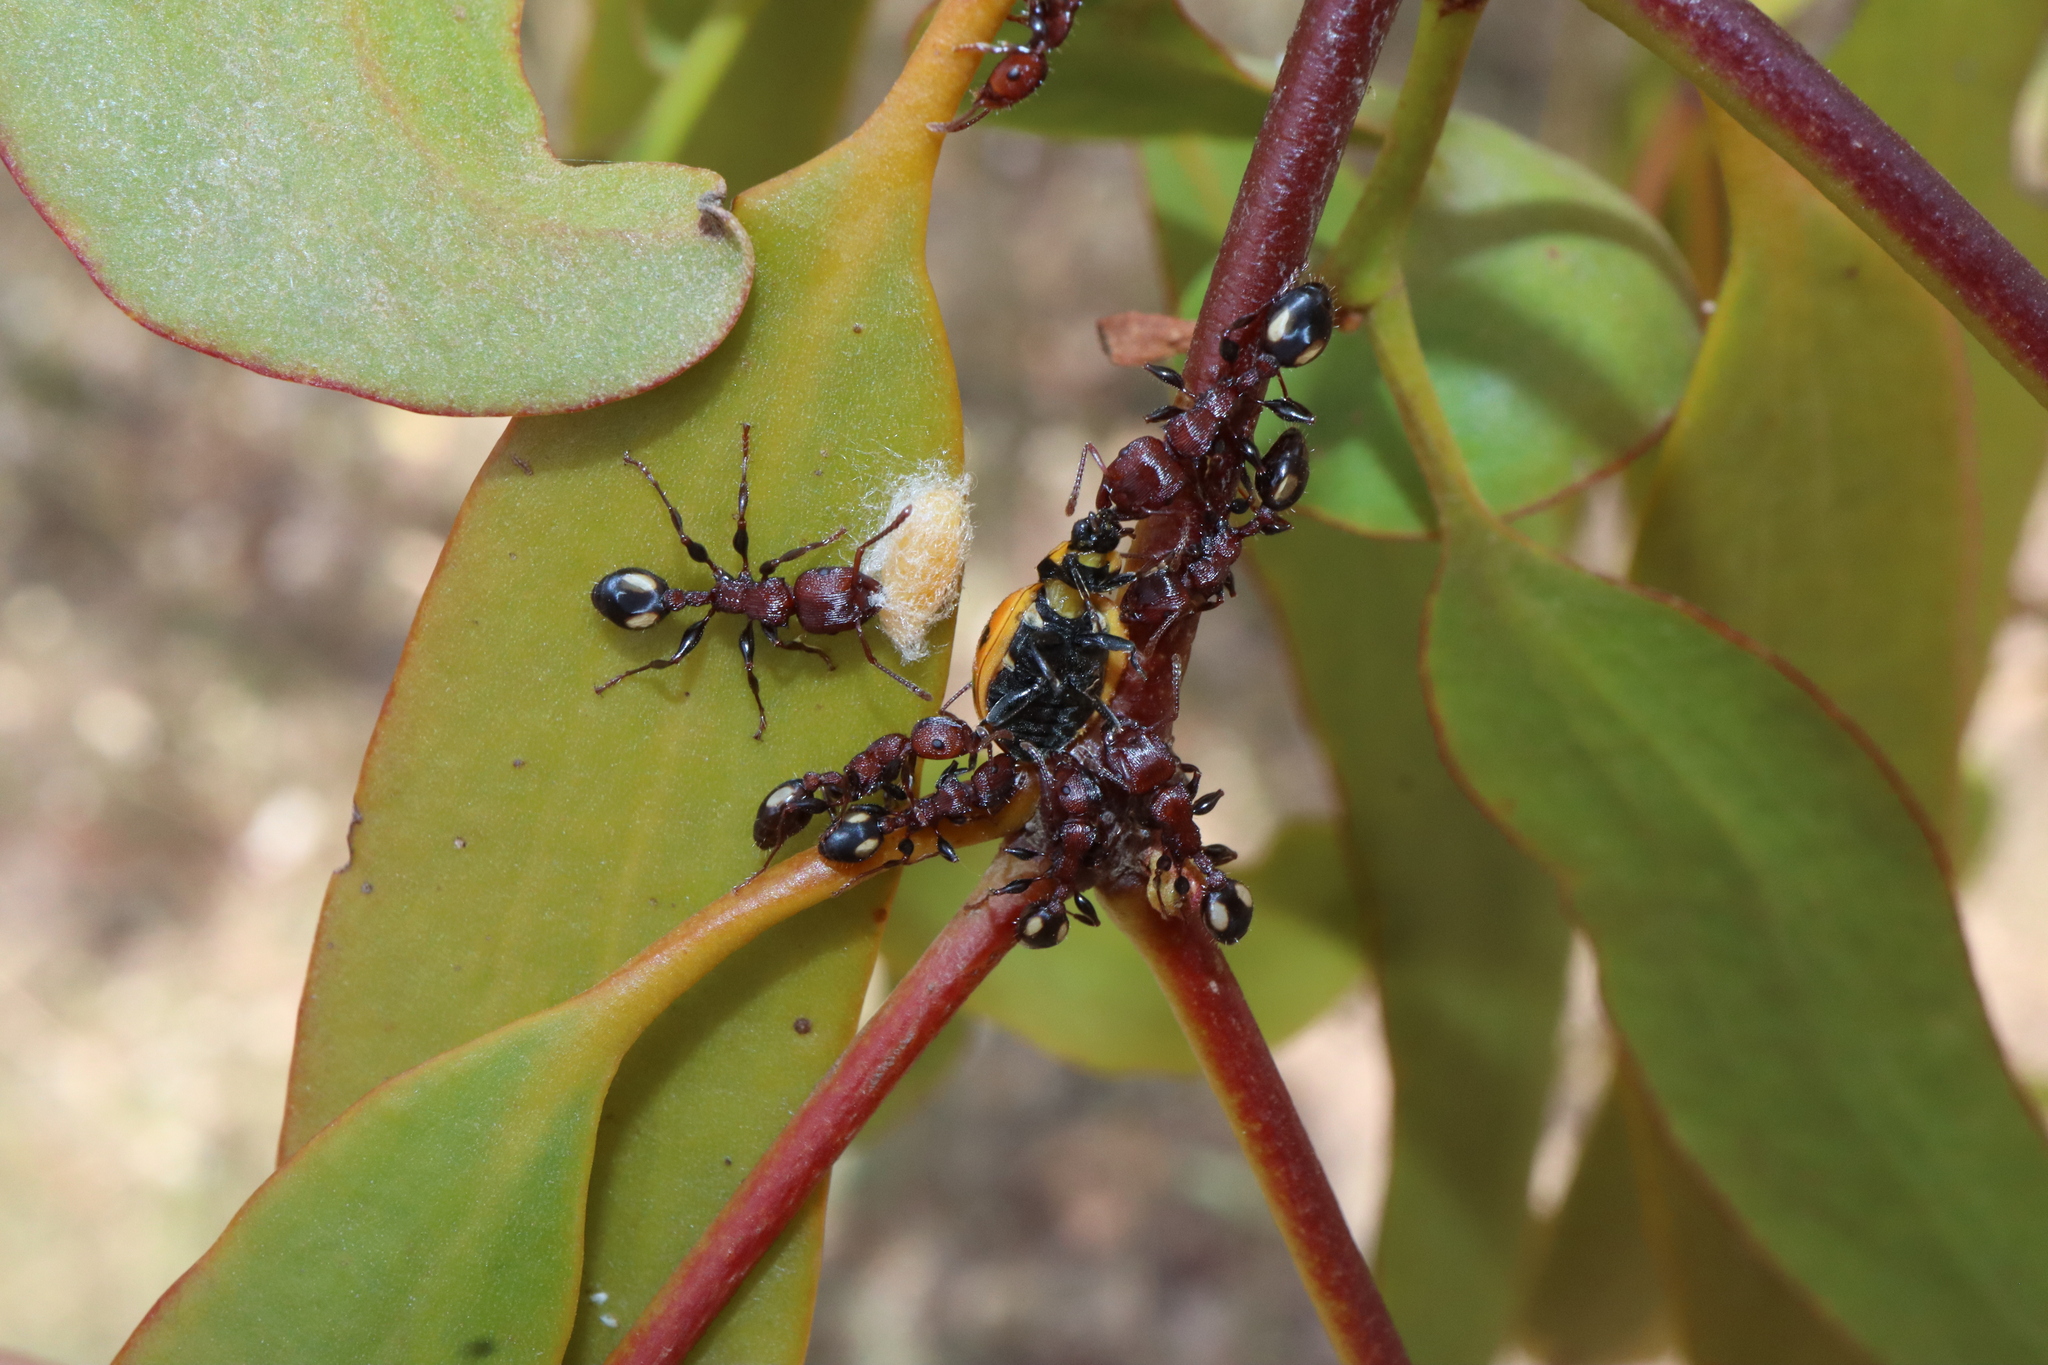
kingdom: Animalia
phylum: Arthropoda
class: Insecta
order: Hymenoptera
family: Formicidae
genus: Podomyrma
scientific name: Podomyrma adelaidae
